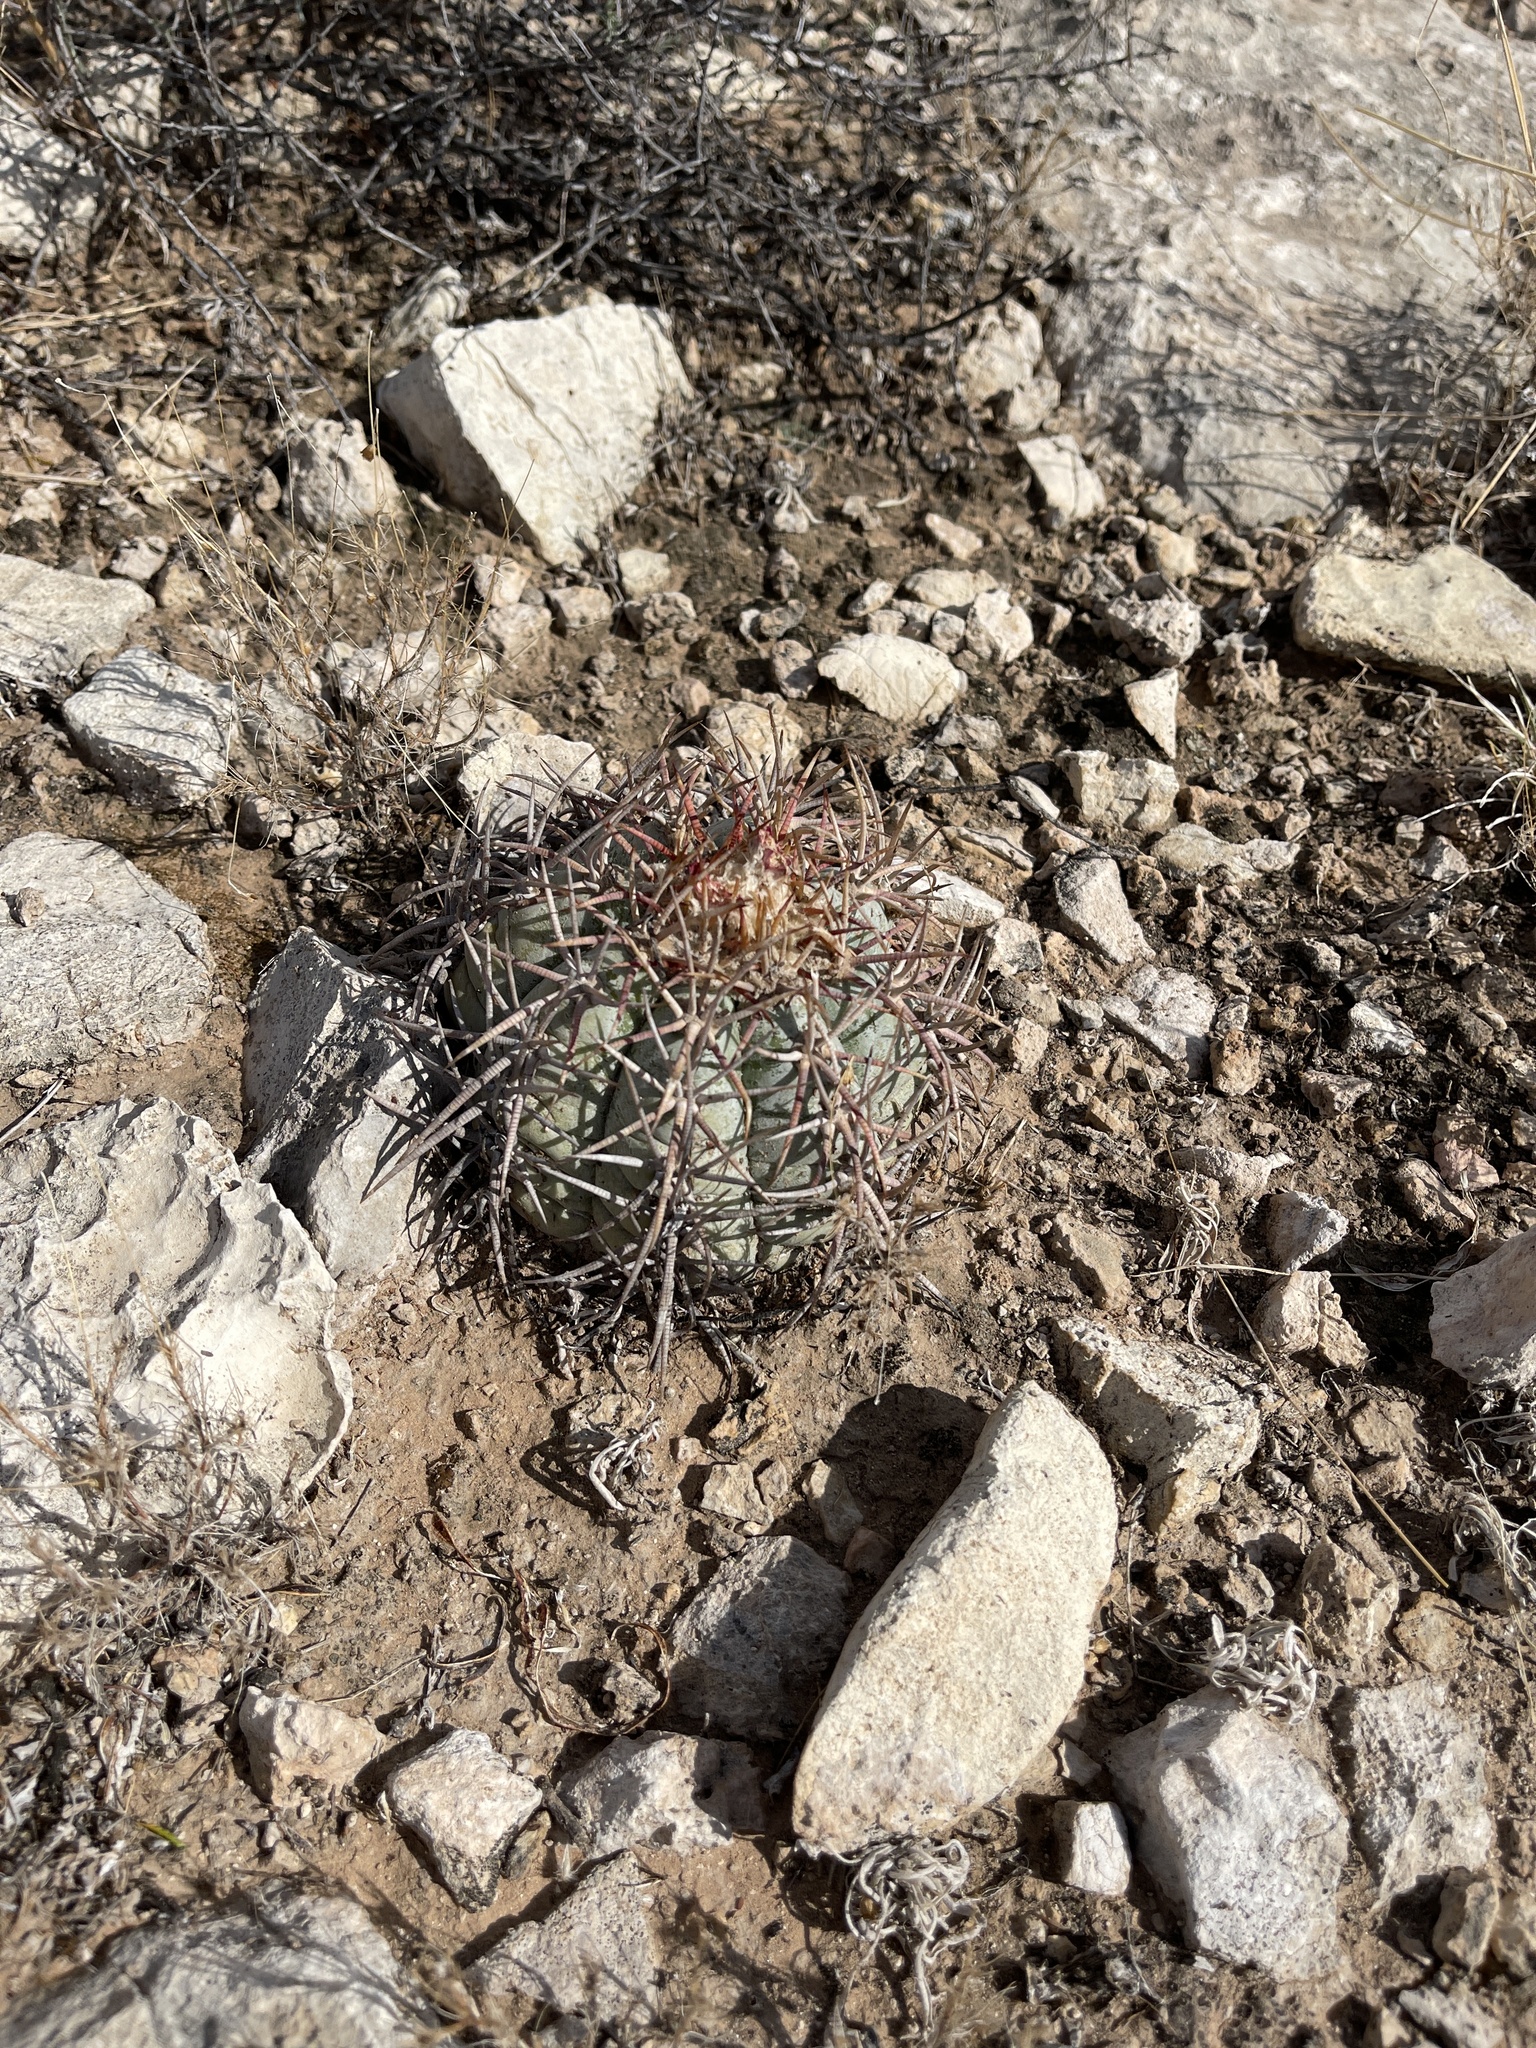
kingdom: Plantae
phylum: Tracheophyta
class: Magnoliopsida
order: Caryophyllales
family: Cactaceae
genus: Echinocactus
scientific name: Echinocactus horizonthalonius
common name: Devilshead
